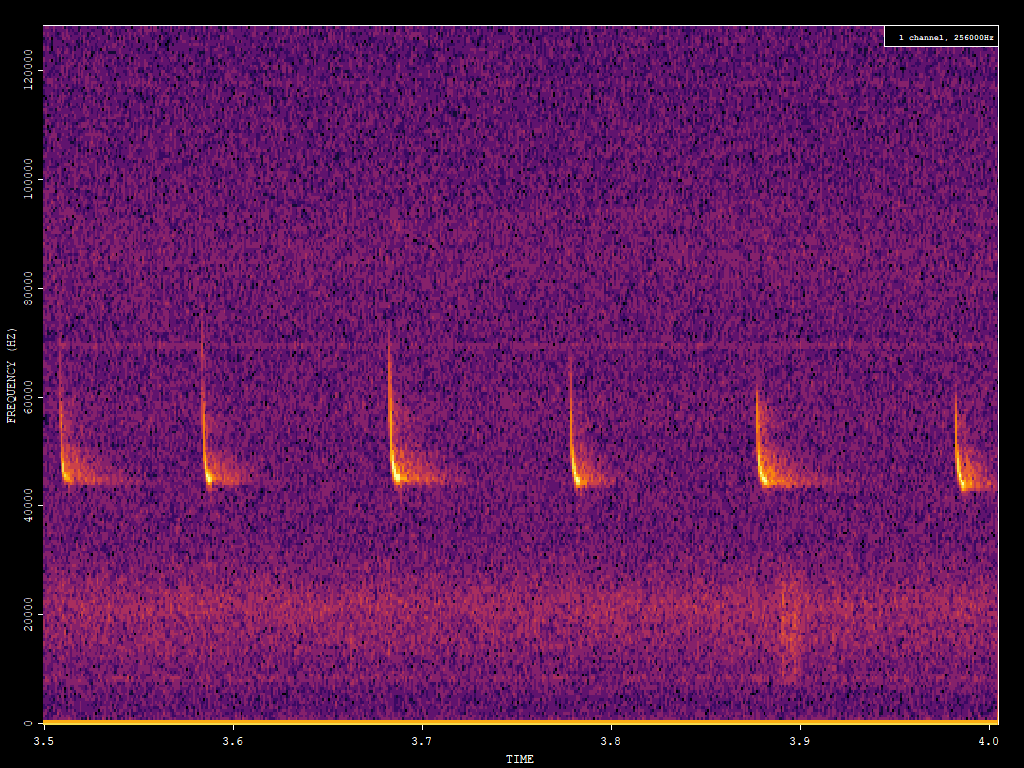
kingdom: Animalia
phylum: Chordata
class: Mammalia
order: Chiroptera
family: Vespertilionidae
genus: Pipistrellus
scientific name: Pipistrellus pipistrellus
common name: Common pipistrelle
